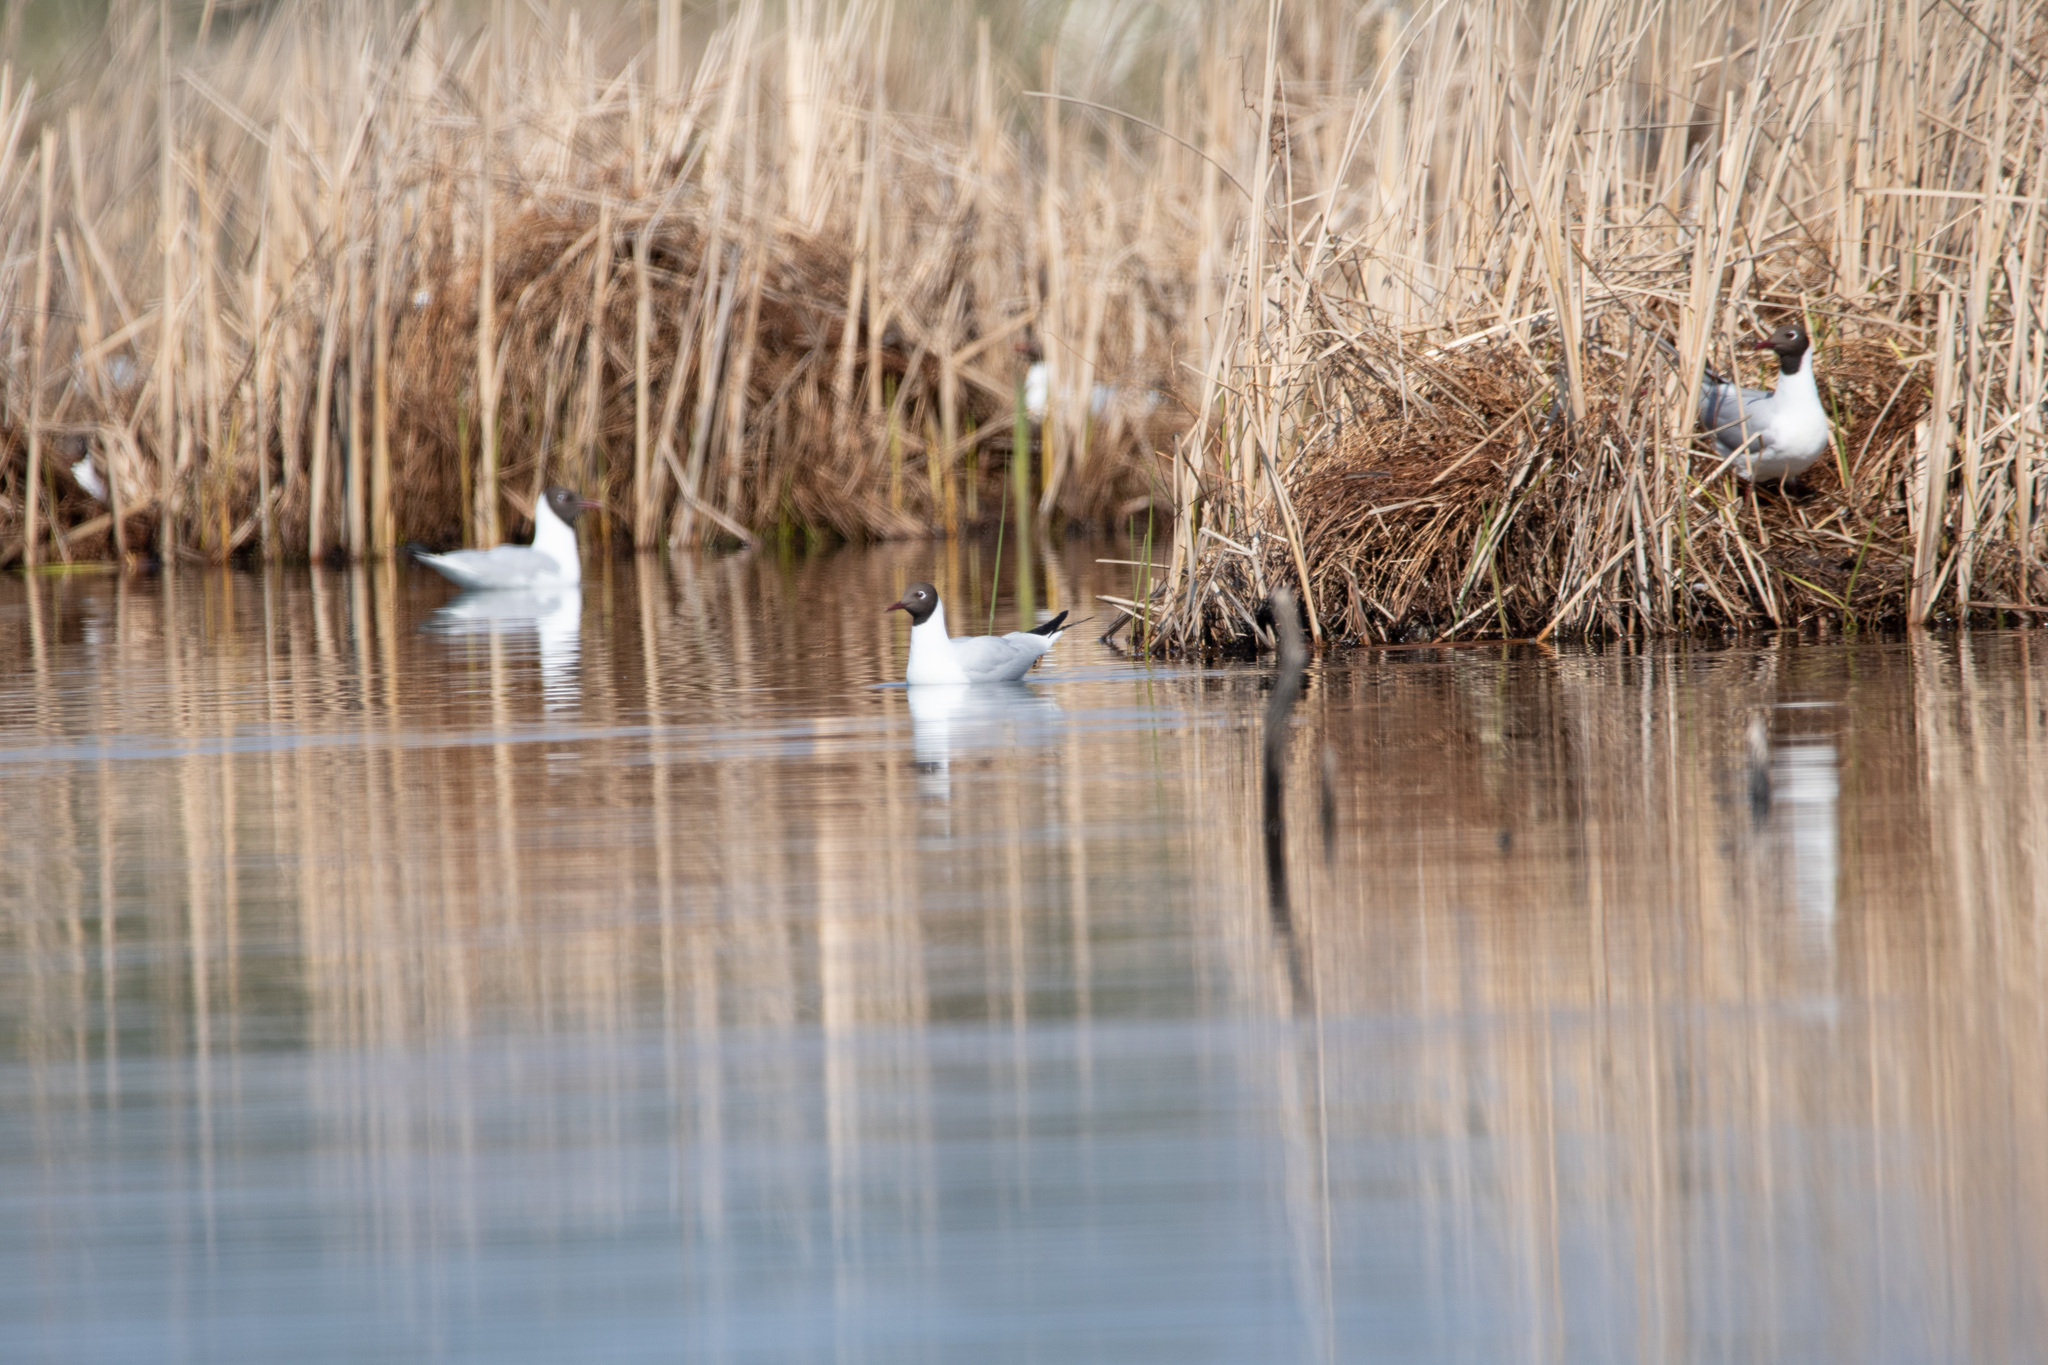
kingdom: Animalia
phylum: Chordata
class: Aves
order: Charadriiformes
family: Laridae
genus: Chroicocephalus
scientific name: Chroicocephalus ridibundus
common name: Black-headed gull
